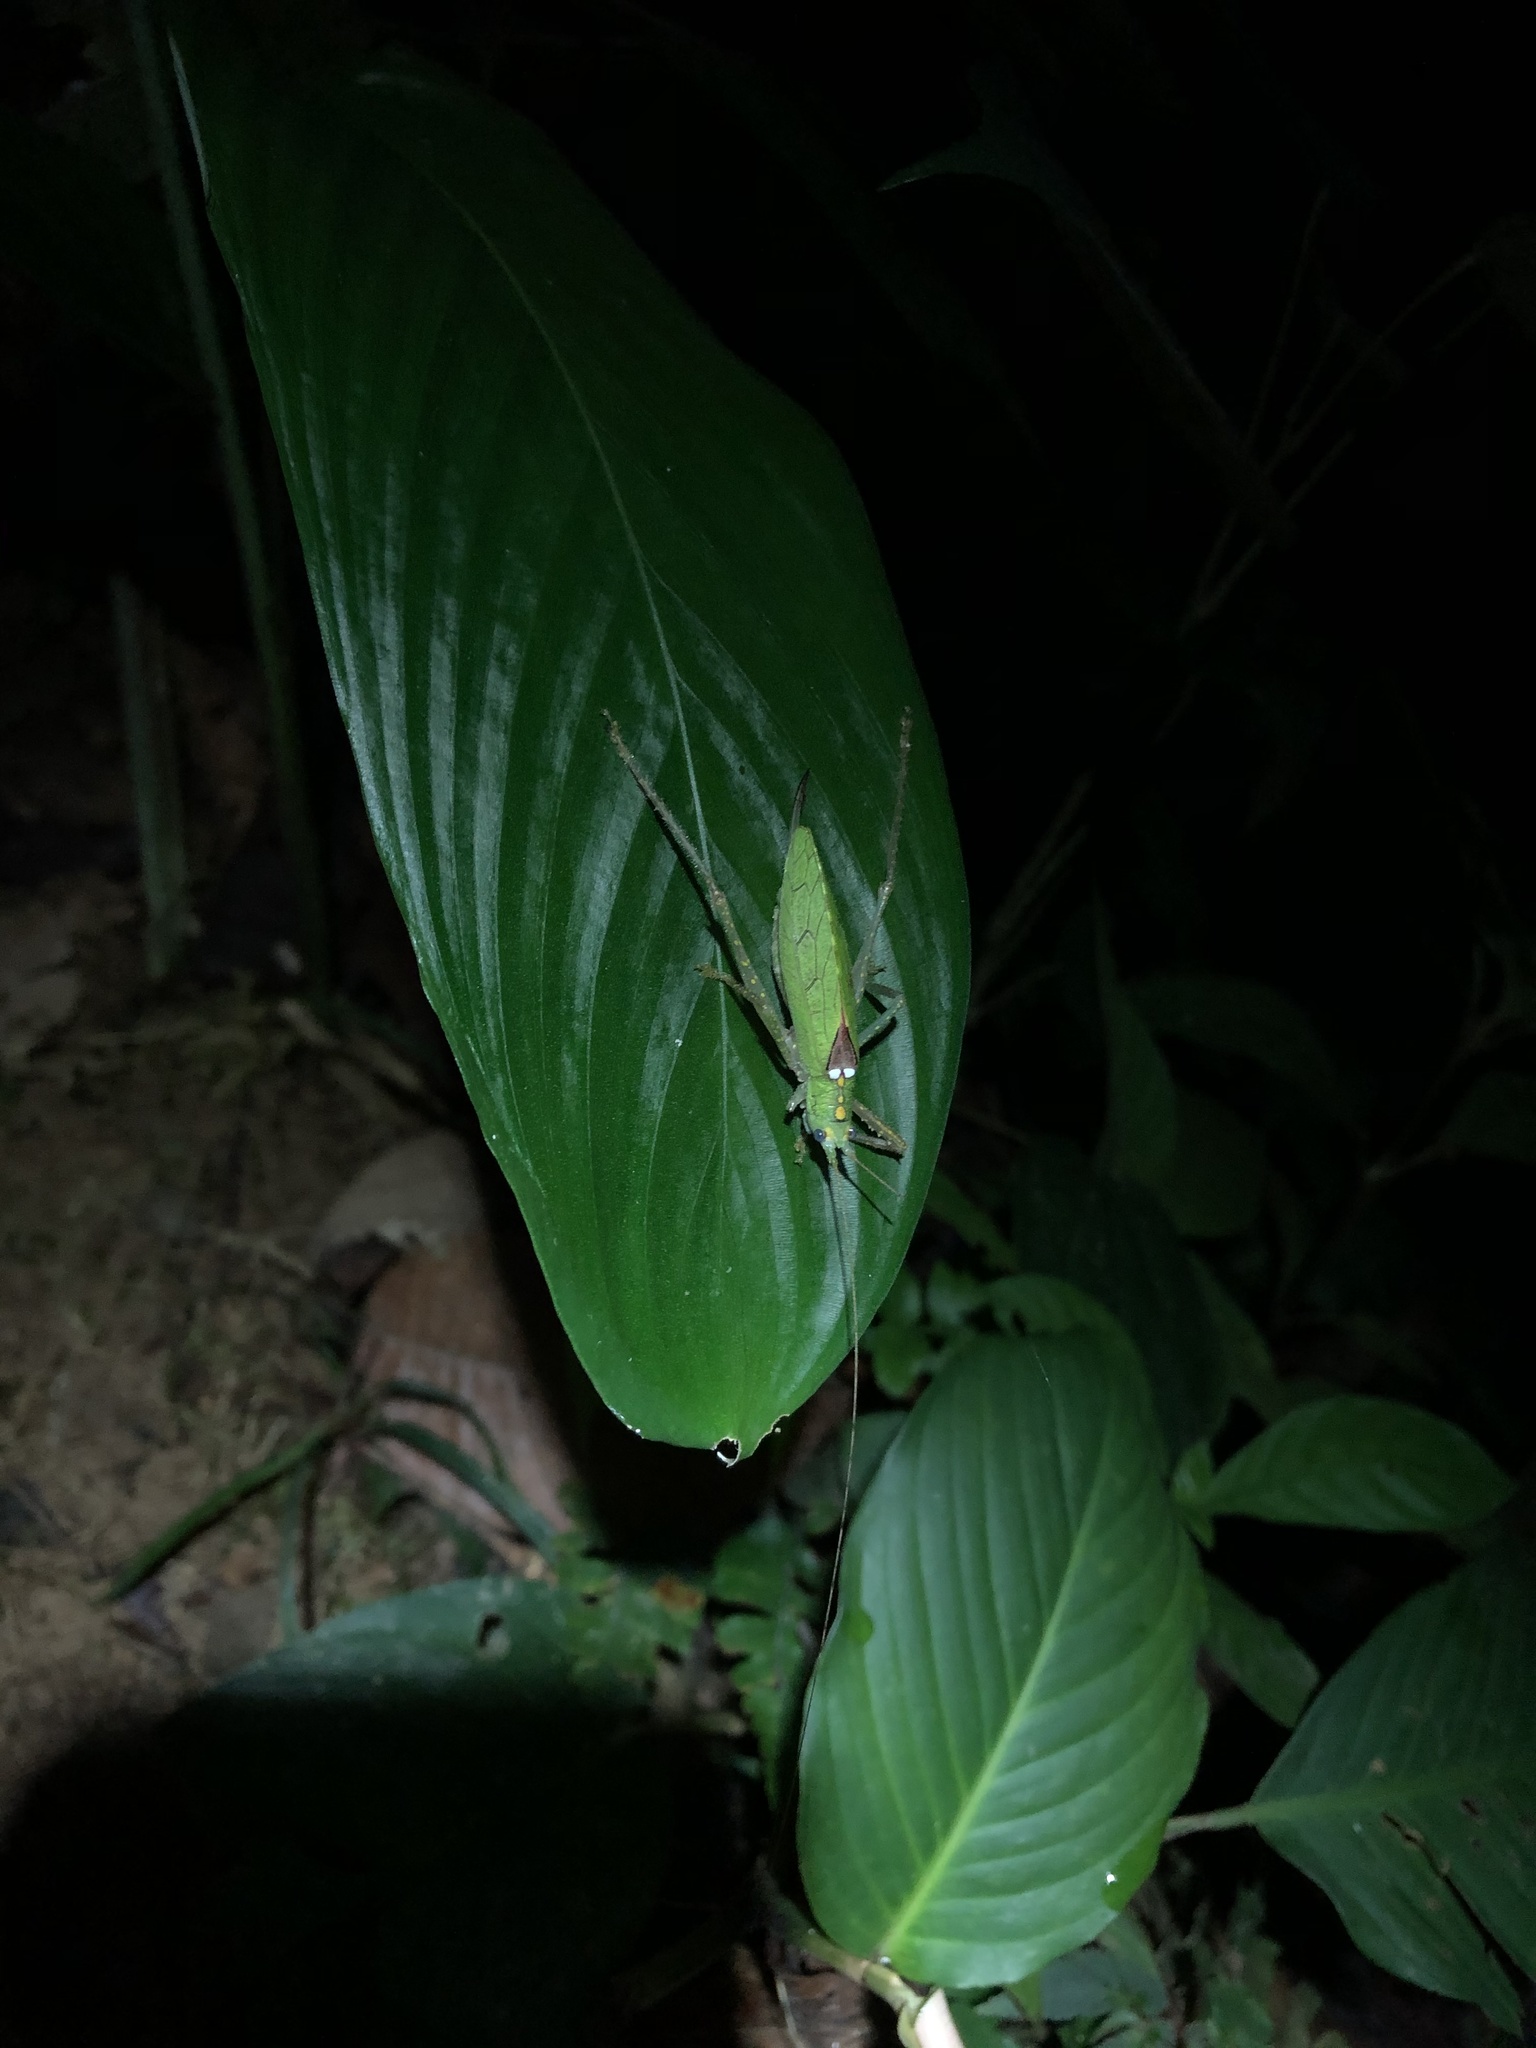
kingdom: Animalia
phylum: Arthropoda
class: Insecta
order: Orthoptera
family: Tettigoniidae
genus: Xiphophyllum
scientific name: Xiphophyllum atrosignatum
